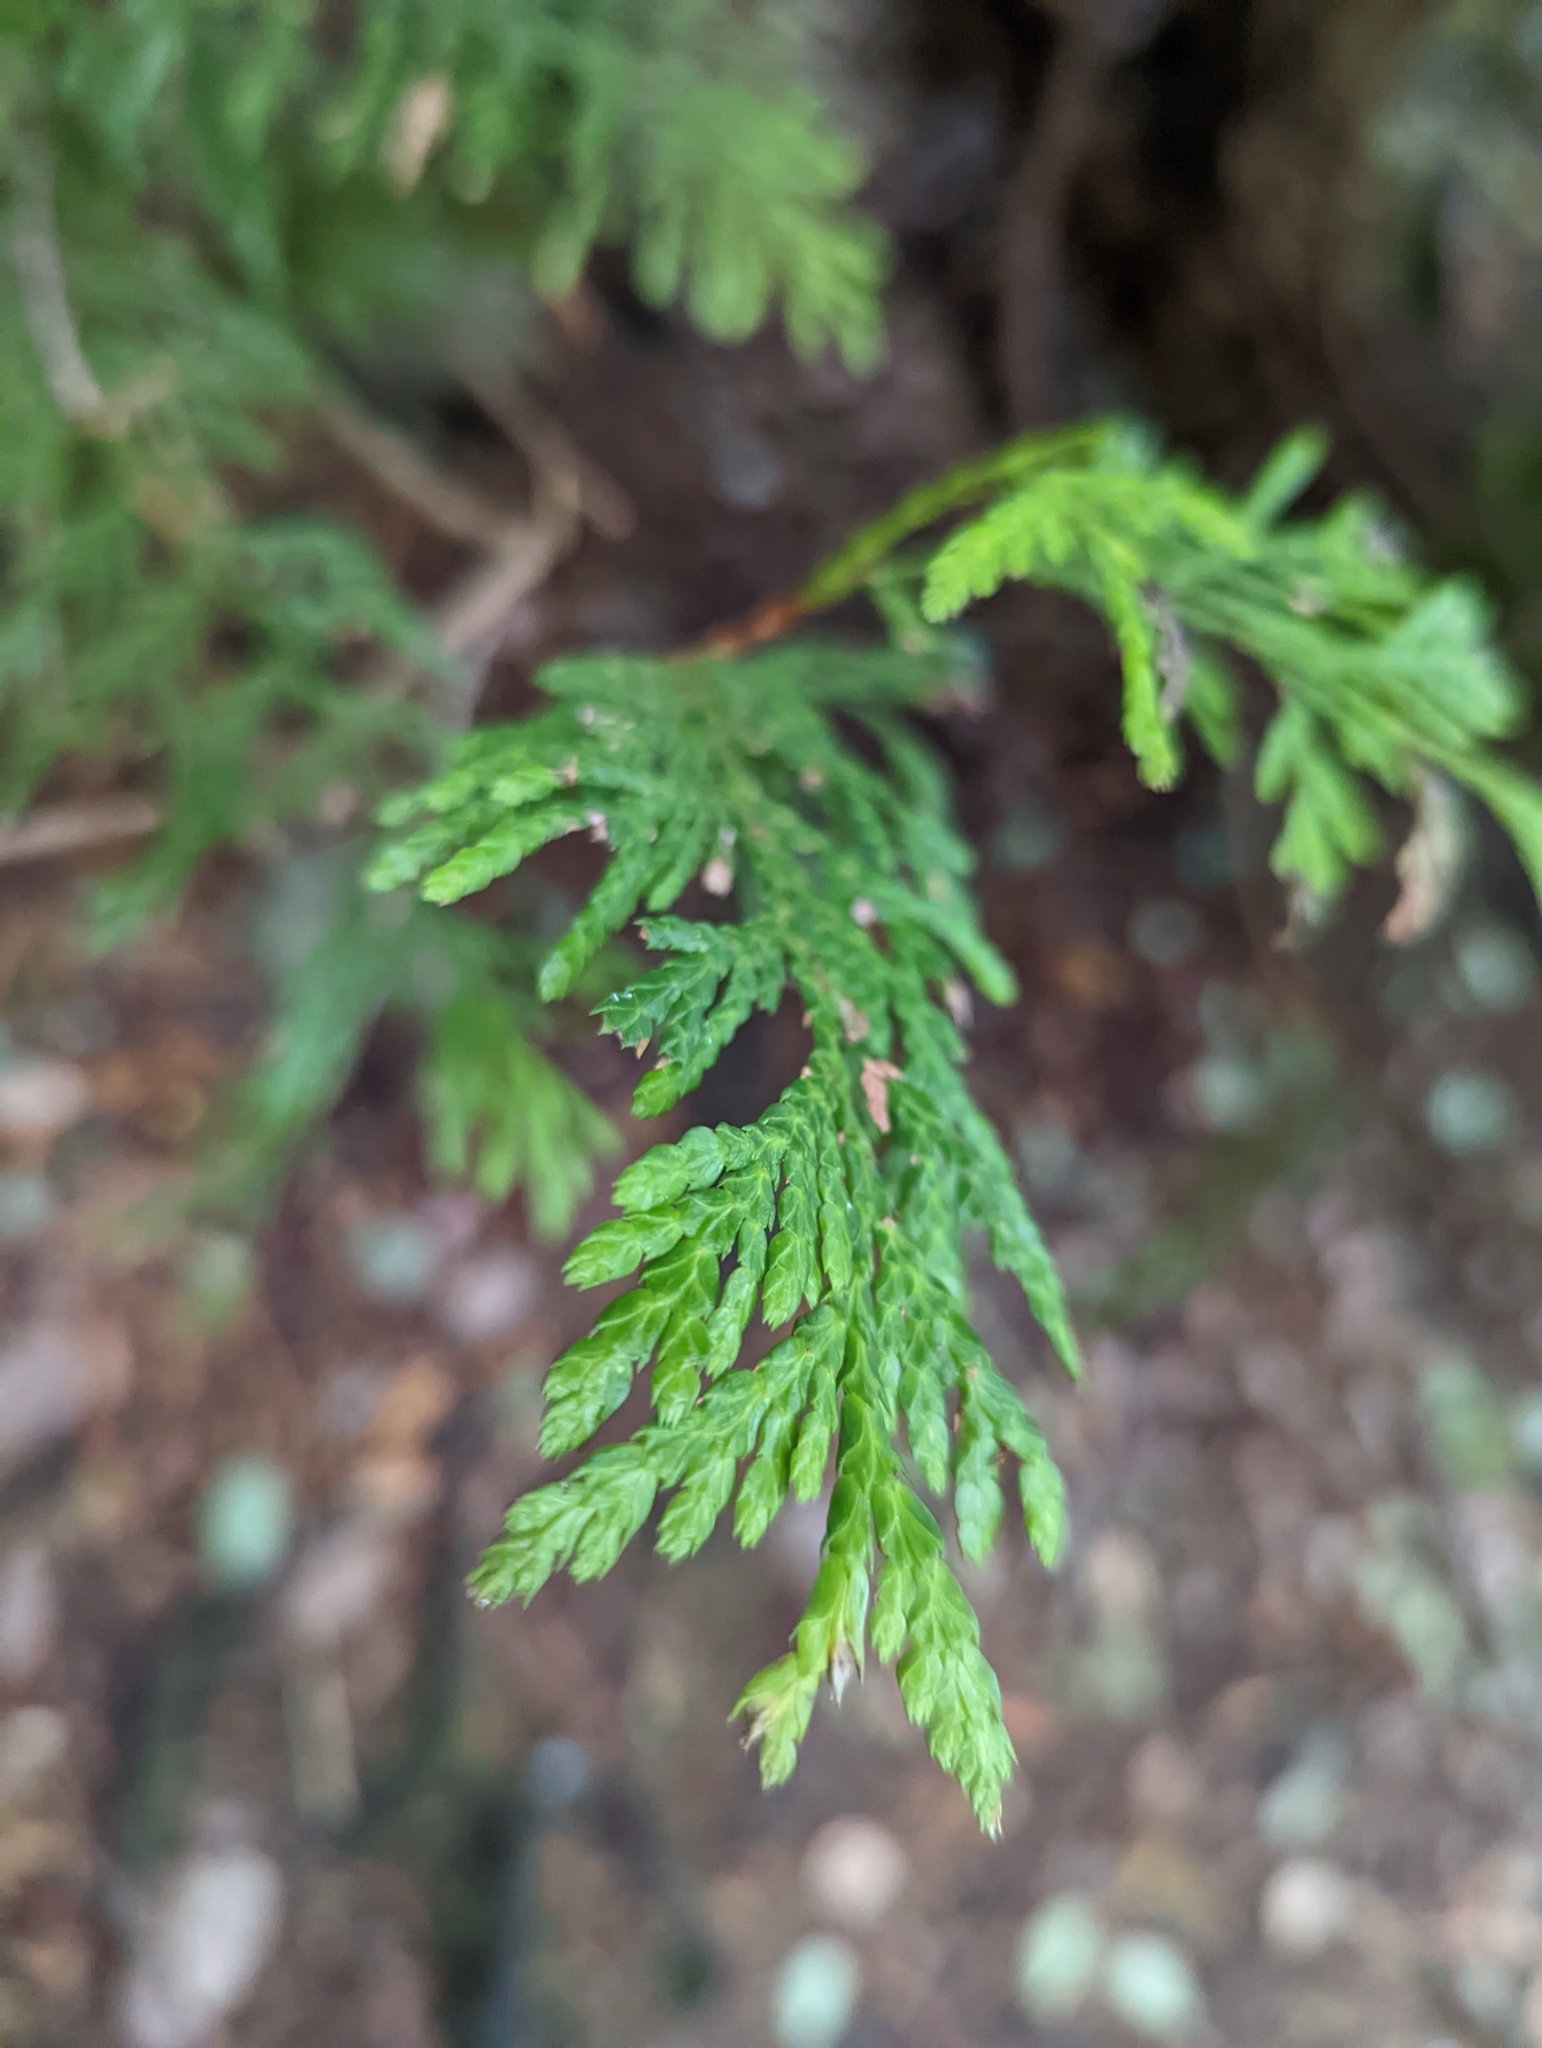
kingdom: Plantae
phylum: Tracheophyta
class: Pinopsida
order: Pinales
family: Cupressaceae
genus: Thuja
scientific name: Thuja plicata
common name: Western red-cedar
